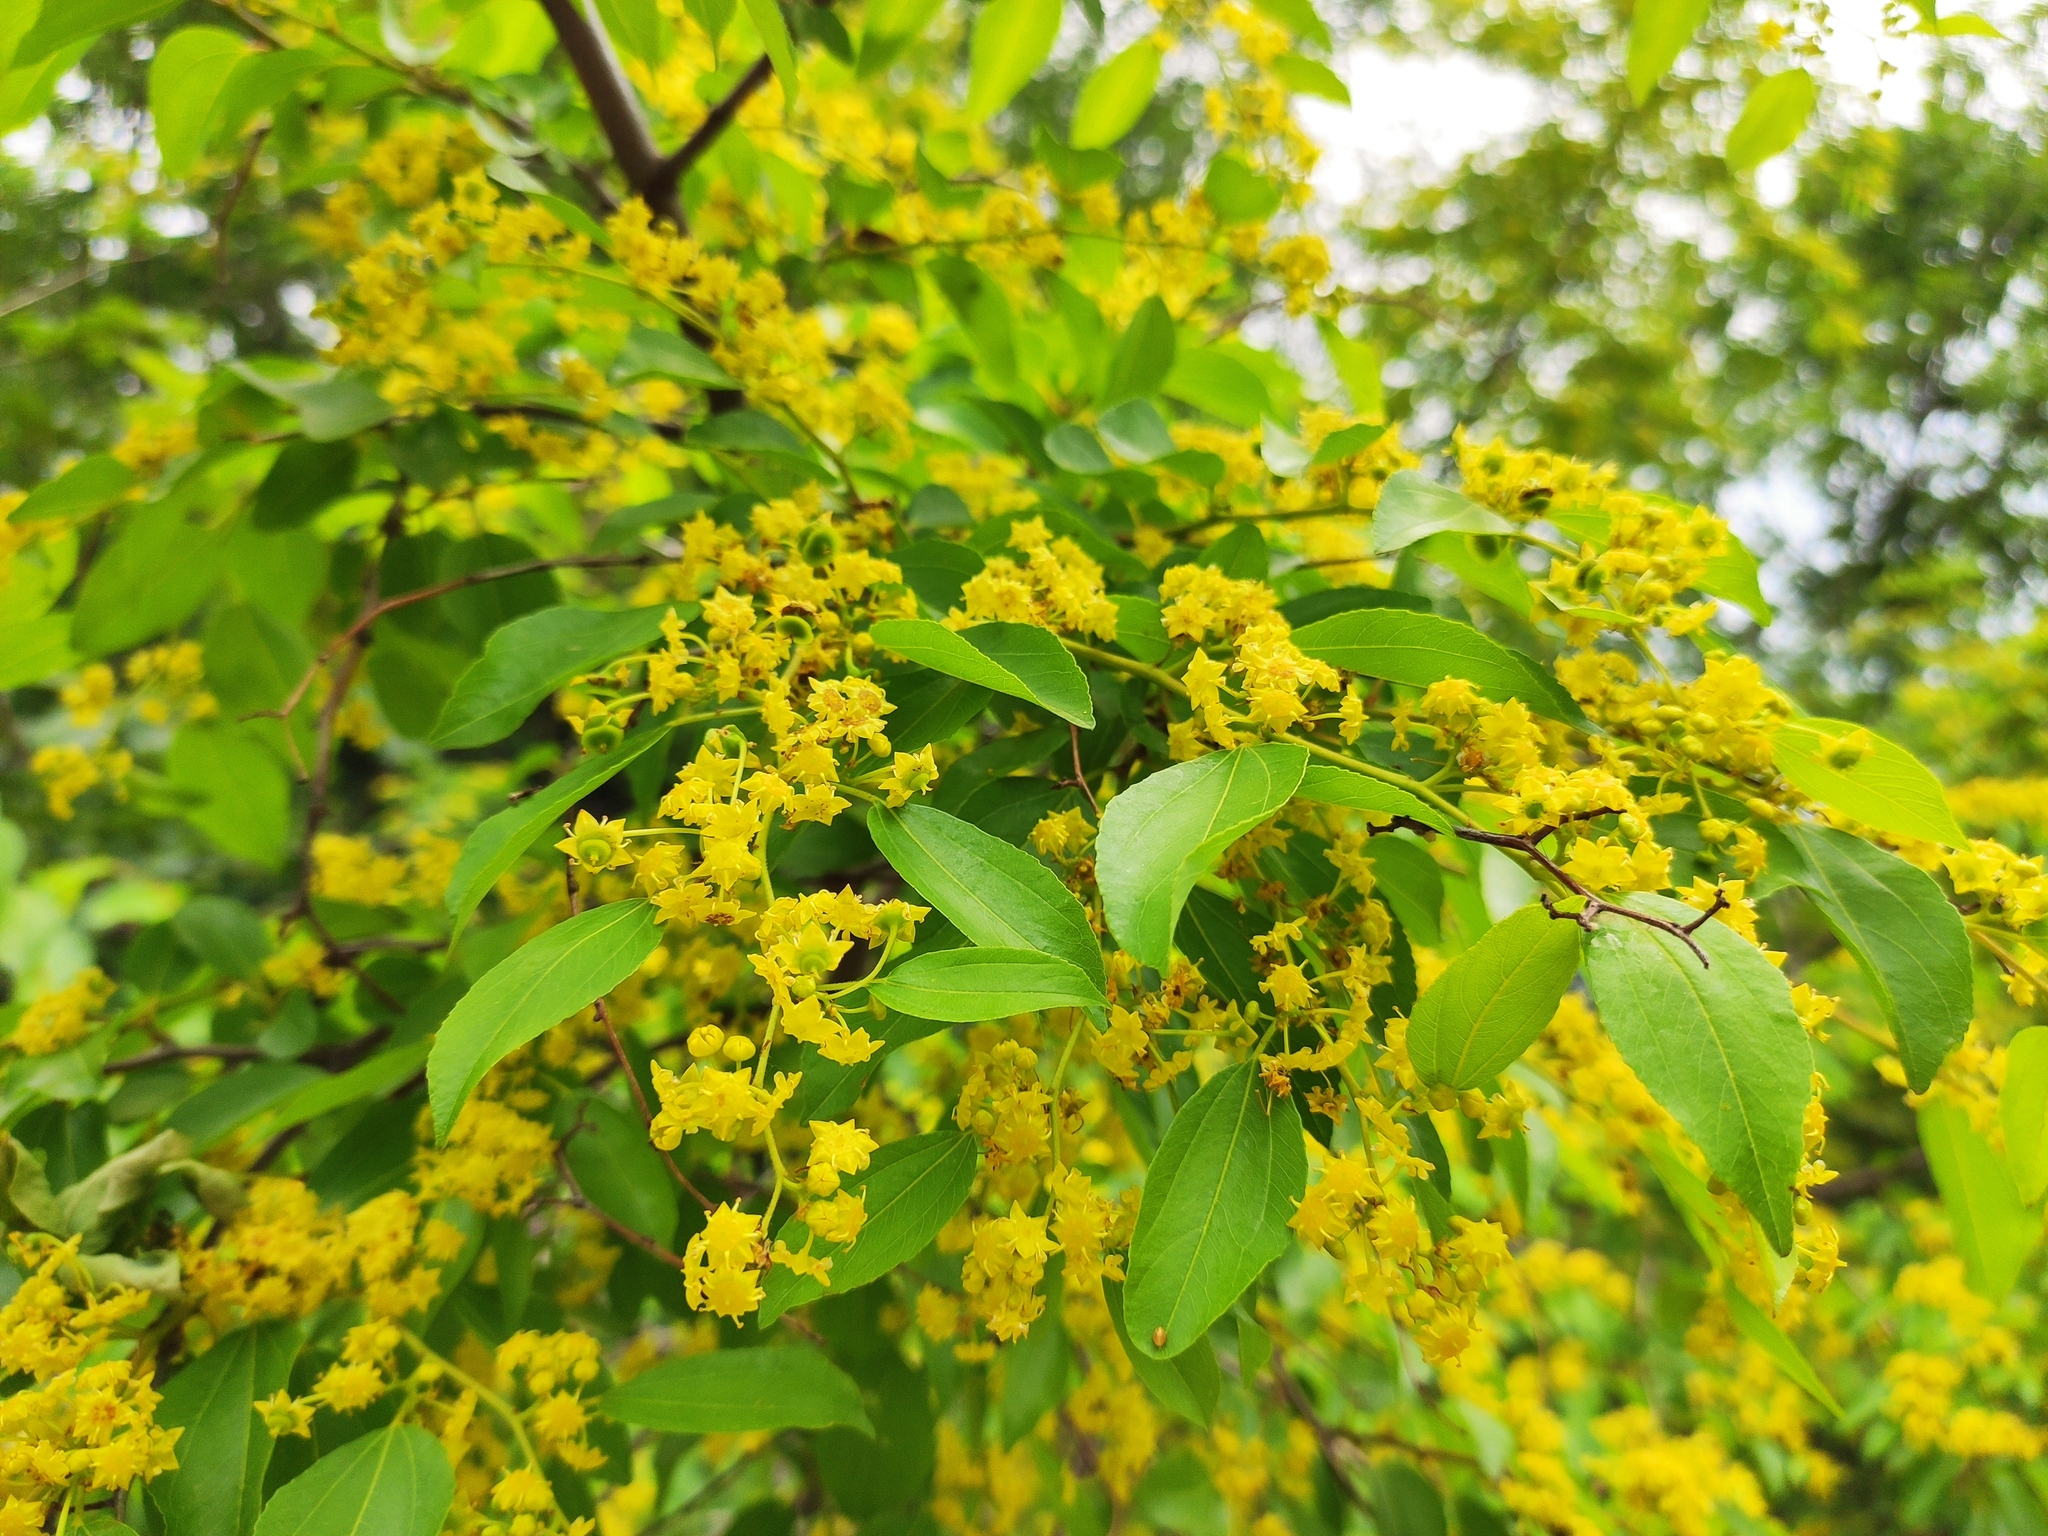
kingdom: Plantae
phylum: Tracheophyta
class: Magnoliopsida
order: Rosales
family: Rhamnaceae
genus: Paliurus
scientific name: Paliurus spina-christi
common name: Jeruselem thorn
